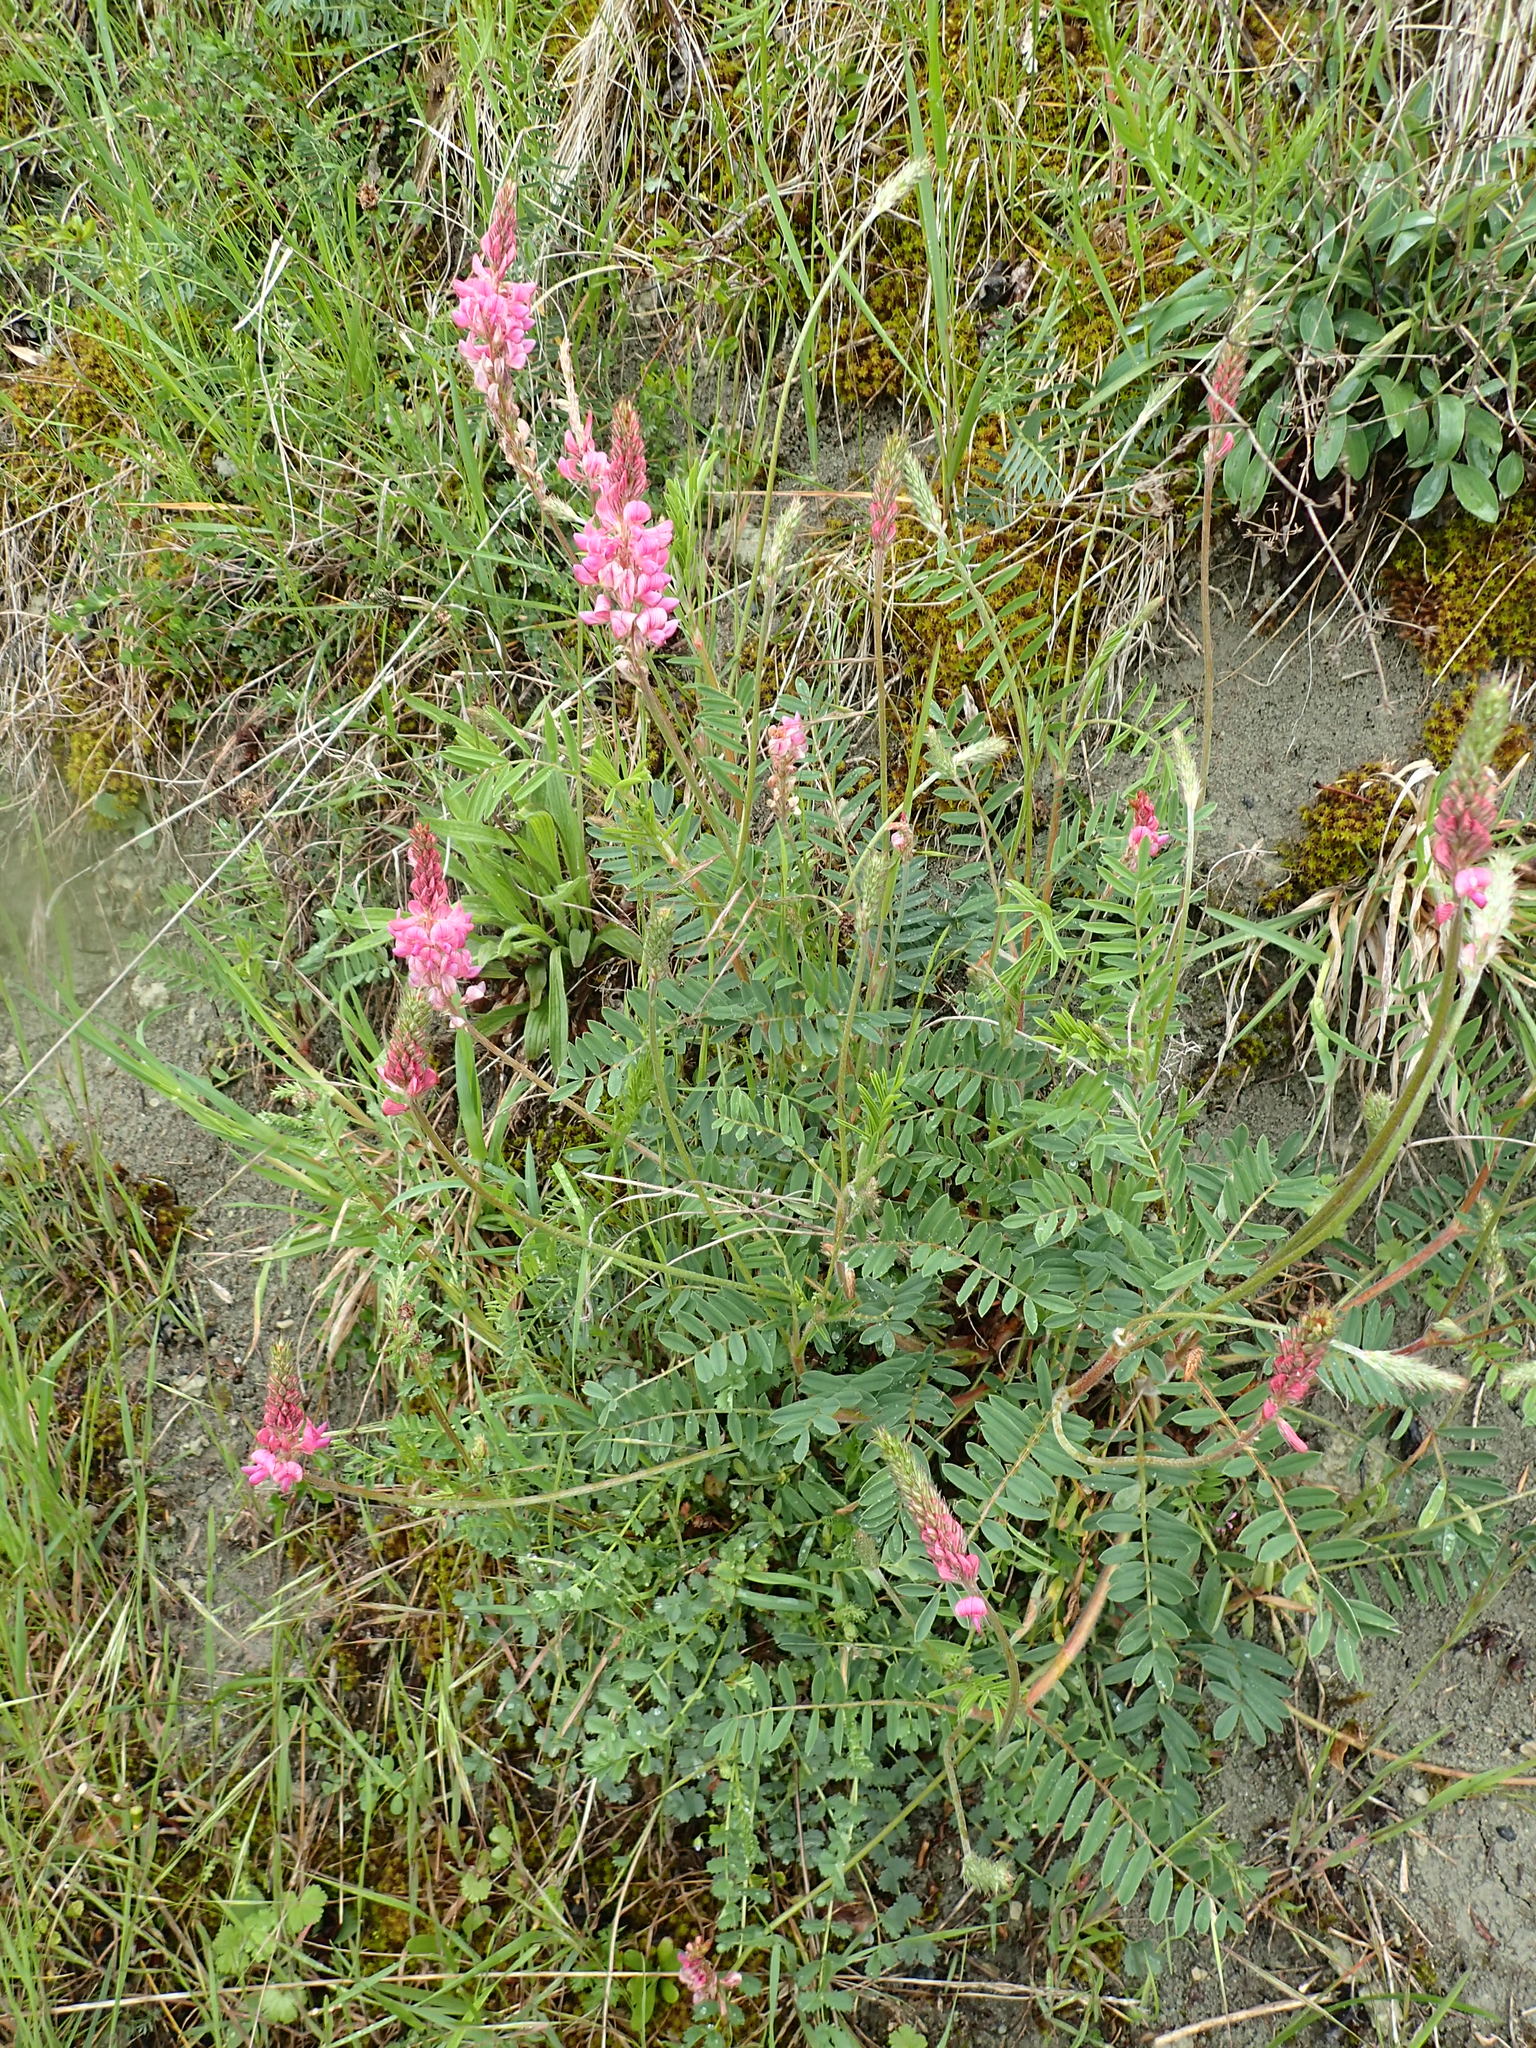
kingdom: Plantae
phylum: Tracheophyta
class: Magnoliopsida
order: Fabales
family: Fabaceae
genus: Onobrychis
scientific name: Onobrychis viciifolia
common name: Sainfoin
